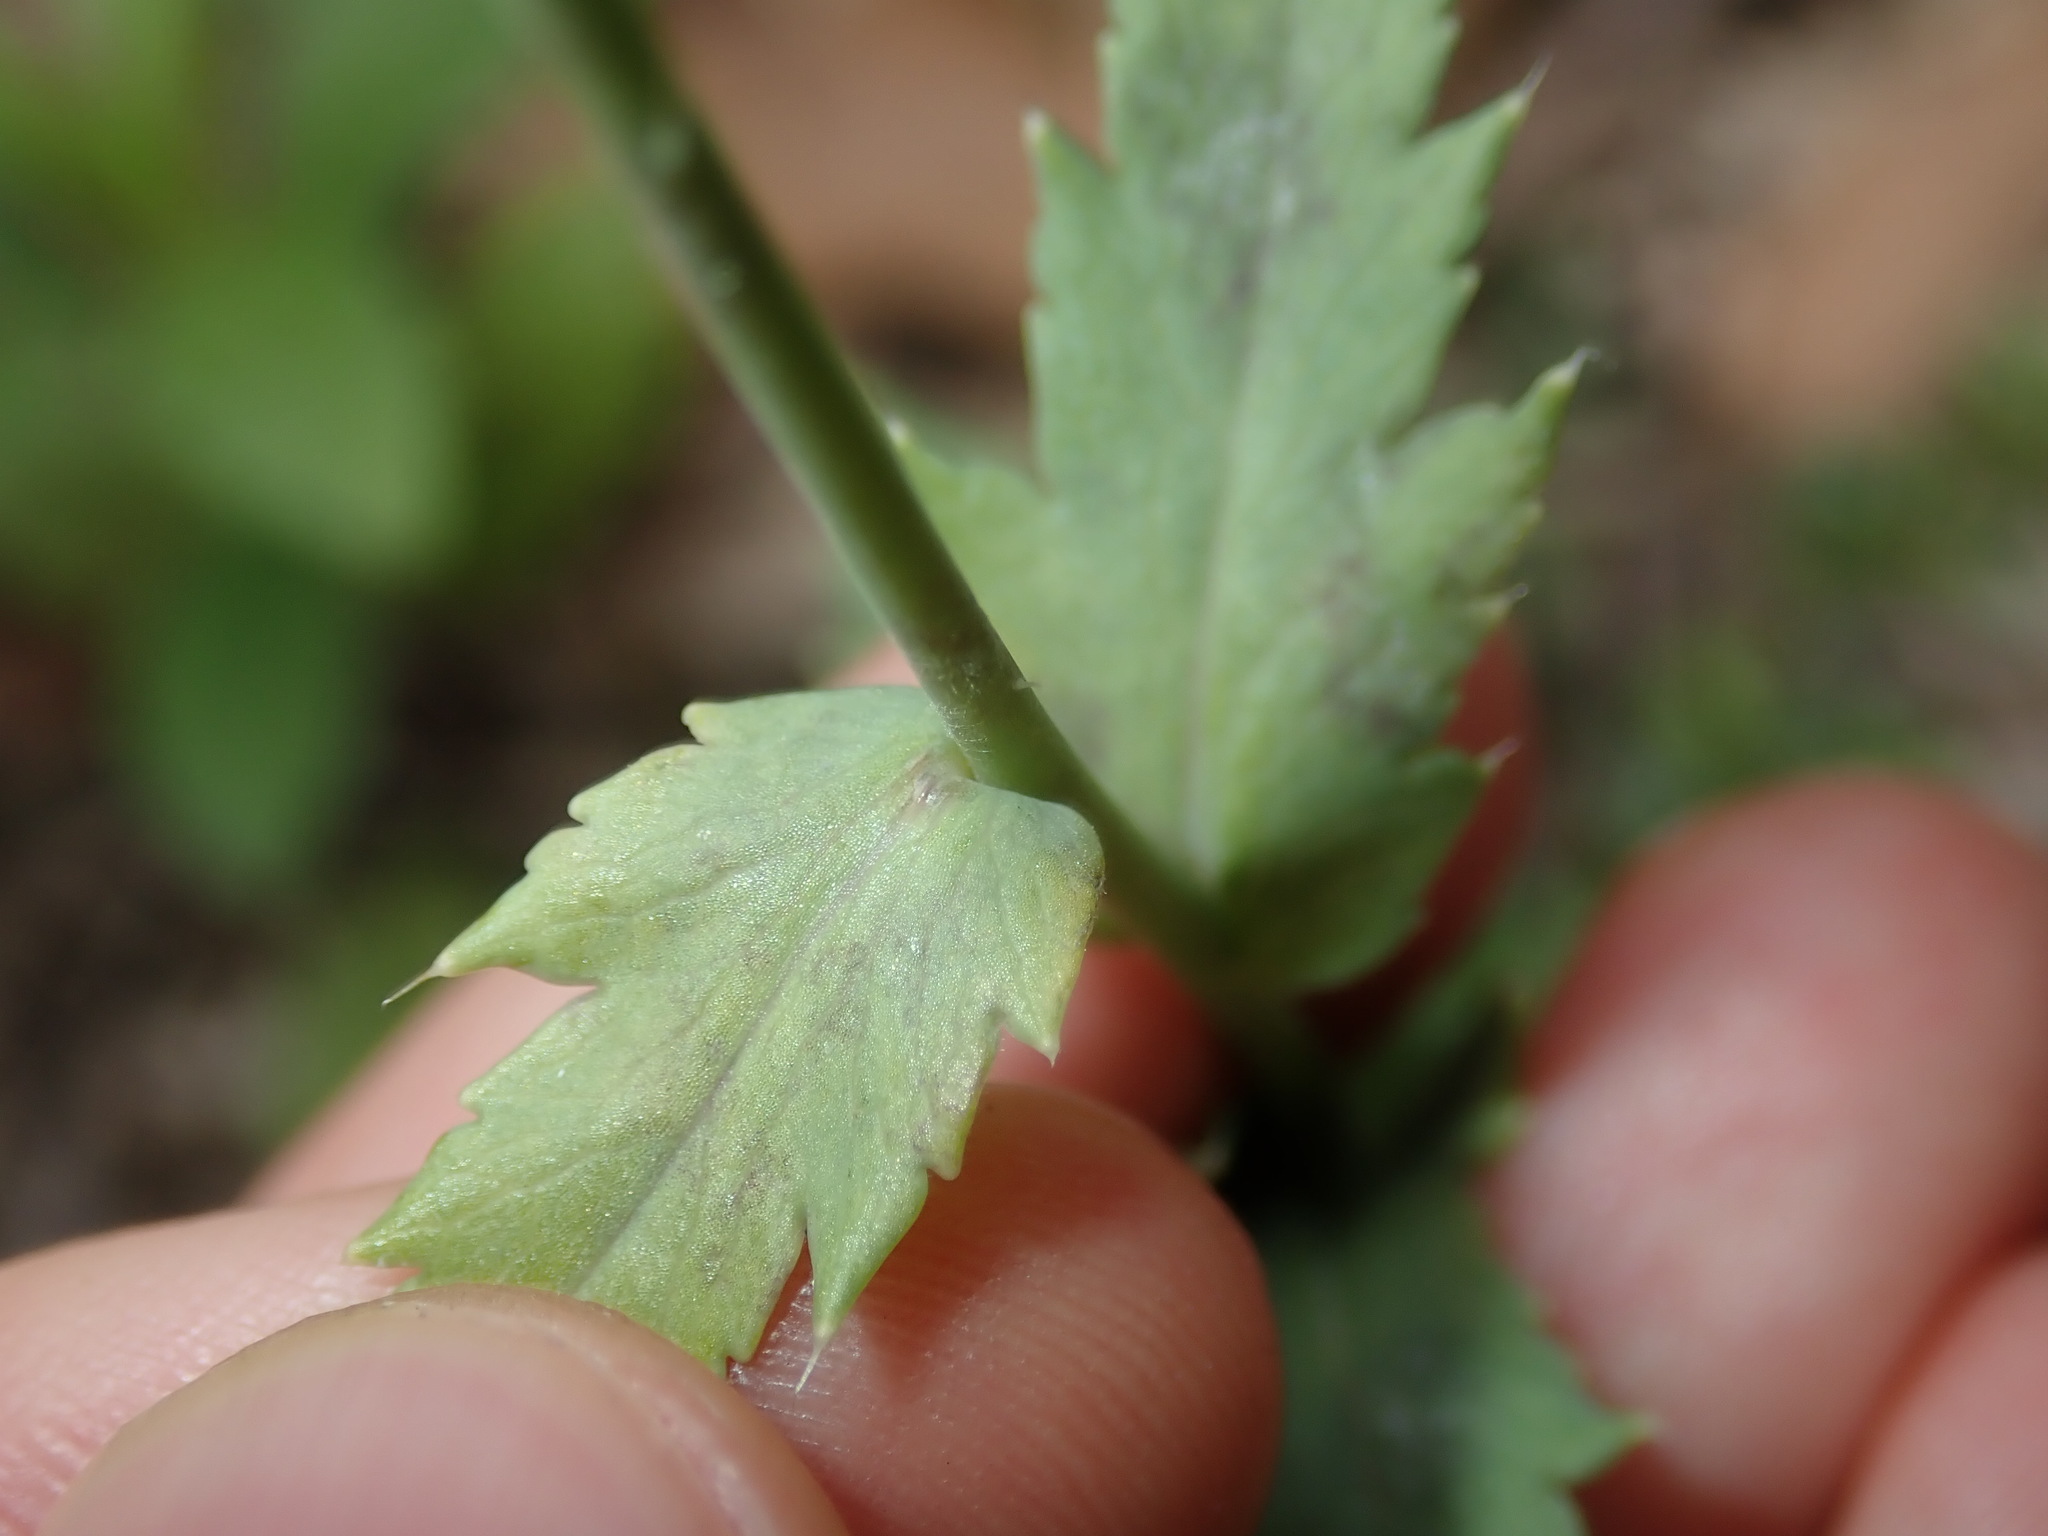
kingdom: Plantae
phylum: Tracheophyta
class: Magnoliopsida
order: Ranunculales
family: Papaveraceae
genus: Papaver
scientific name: Papaver setigerum
